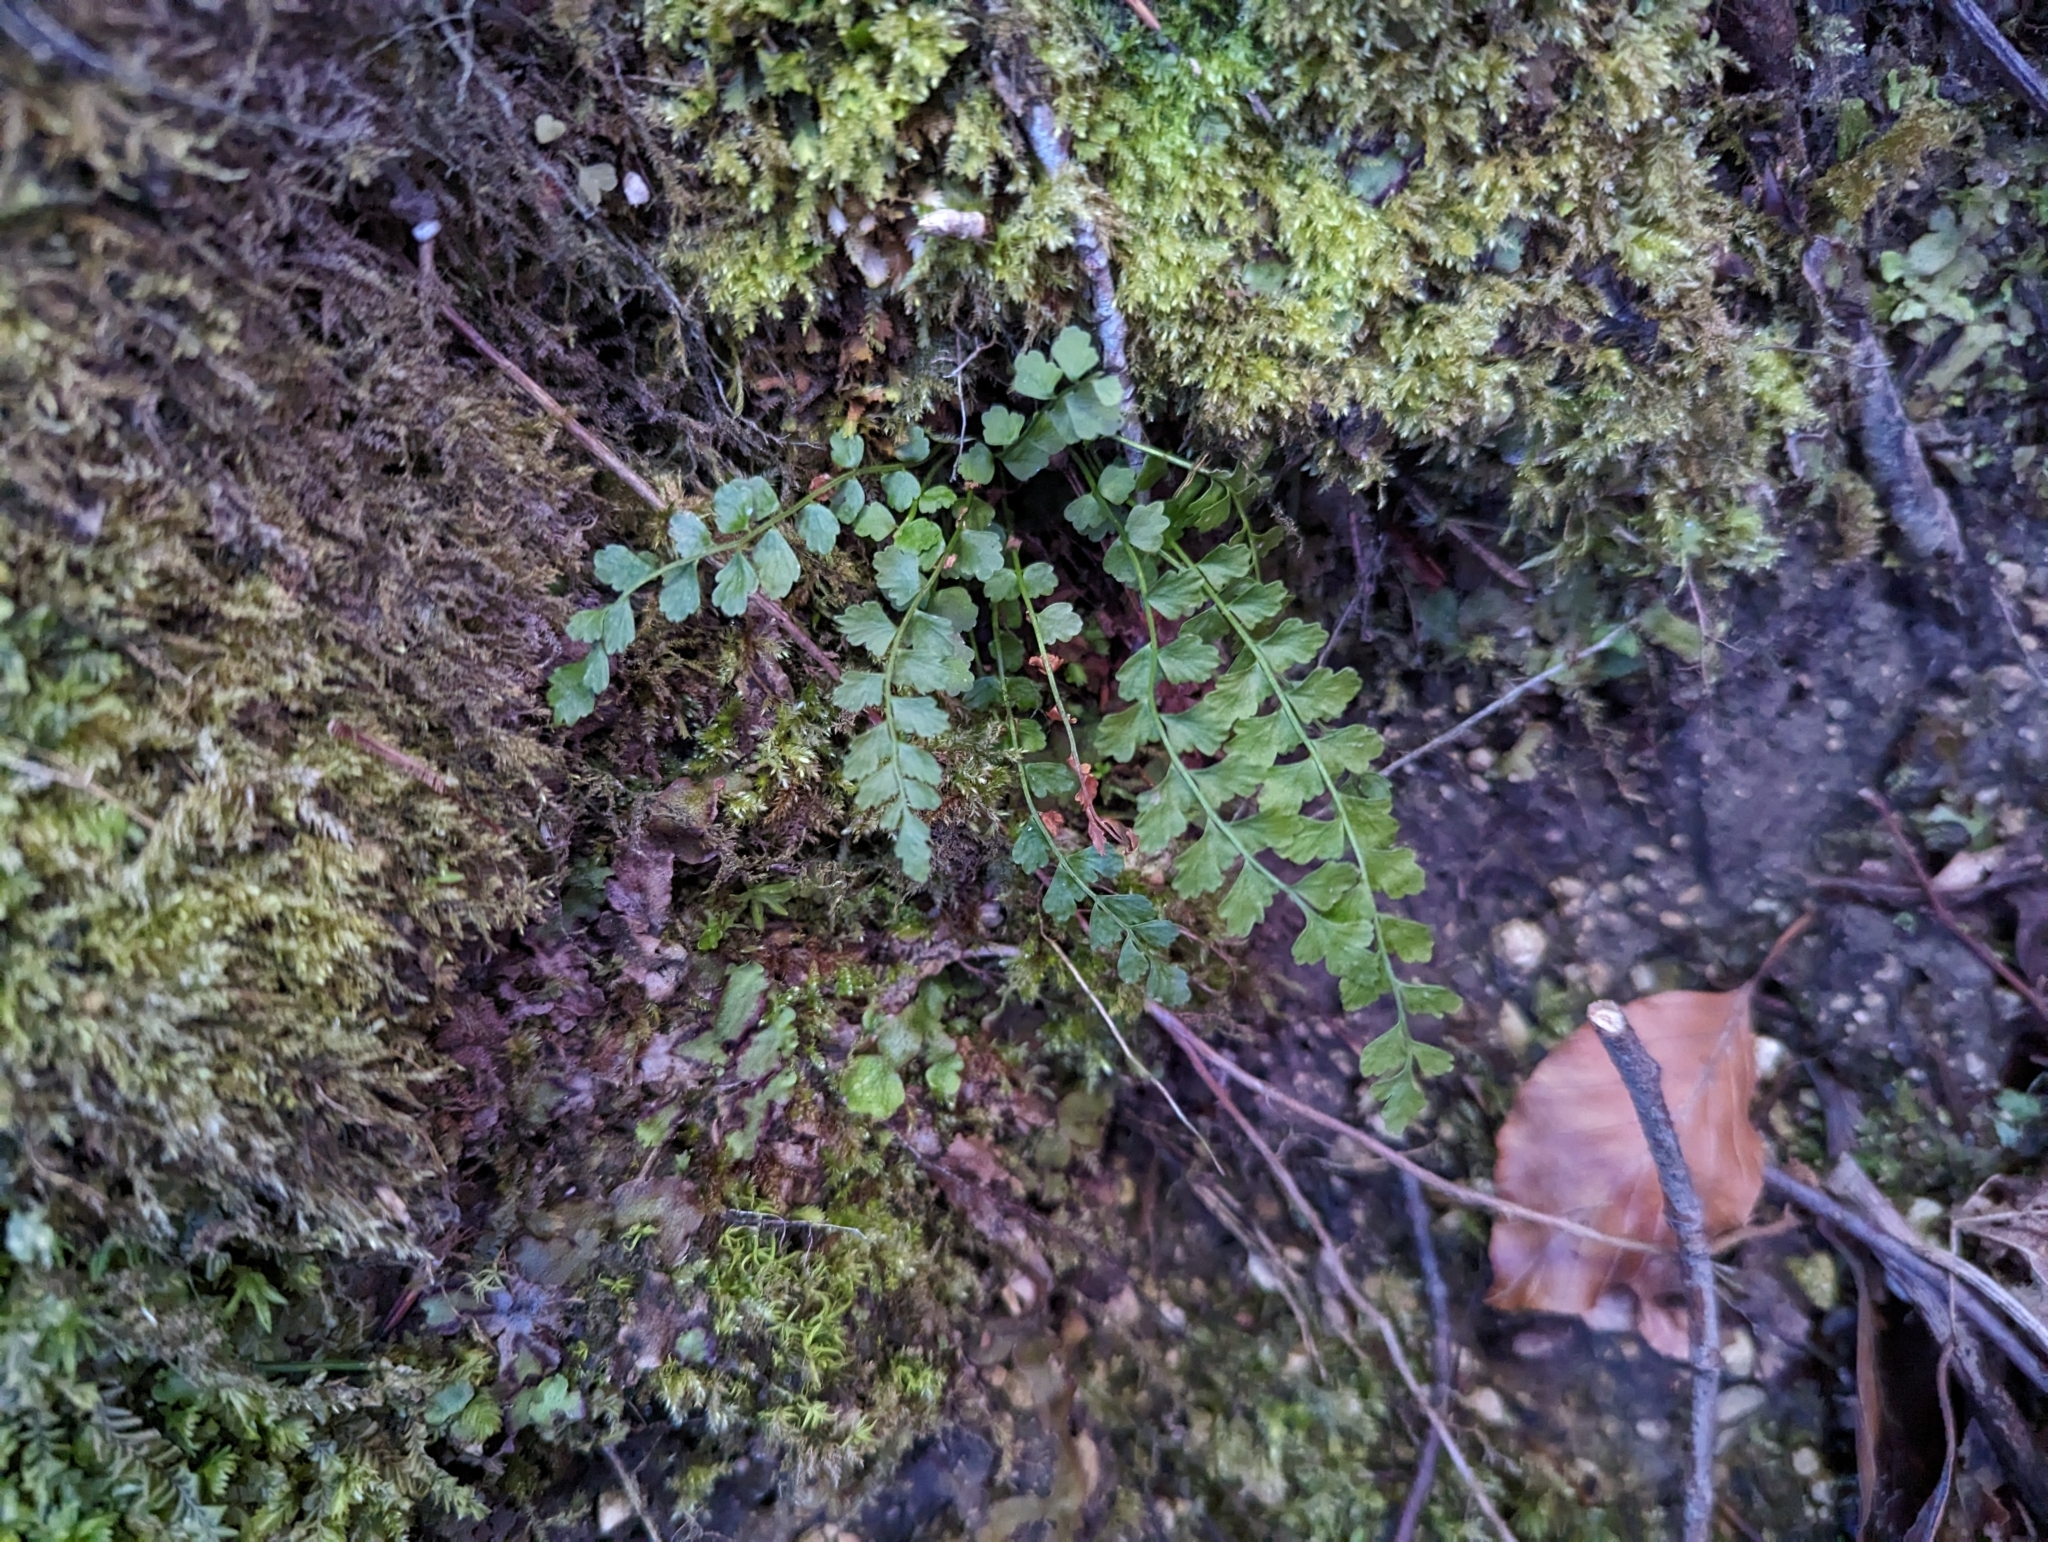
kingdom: Plantae
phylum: Tracheophyta
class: Polypodiopsida
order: Polypodiales
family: Aspleniaceae
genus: Asplenium
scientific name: Asplenium viride
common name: Green spleenwort
